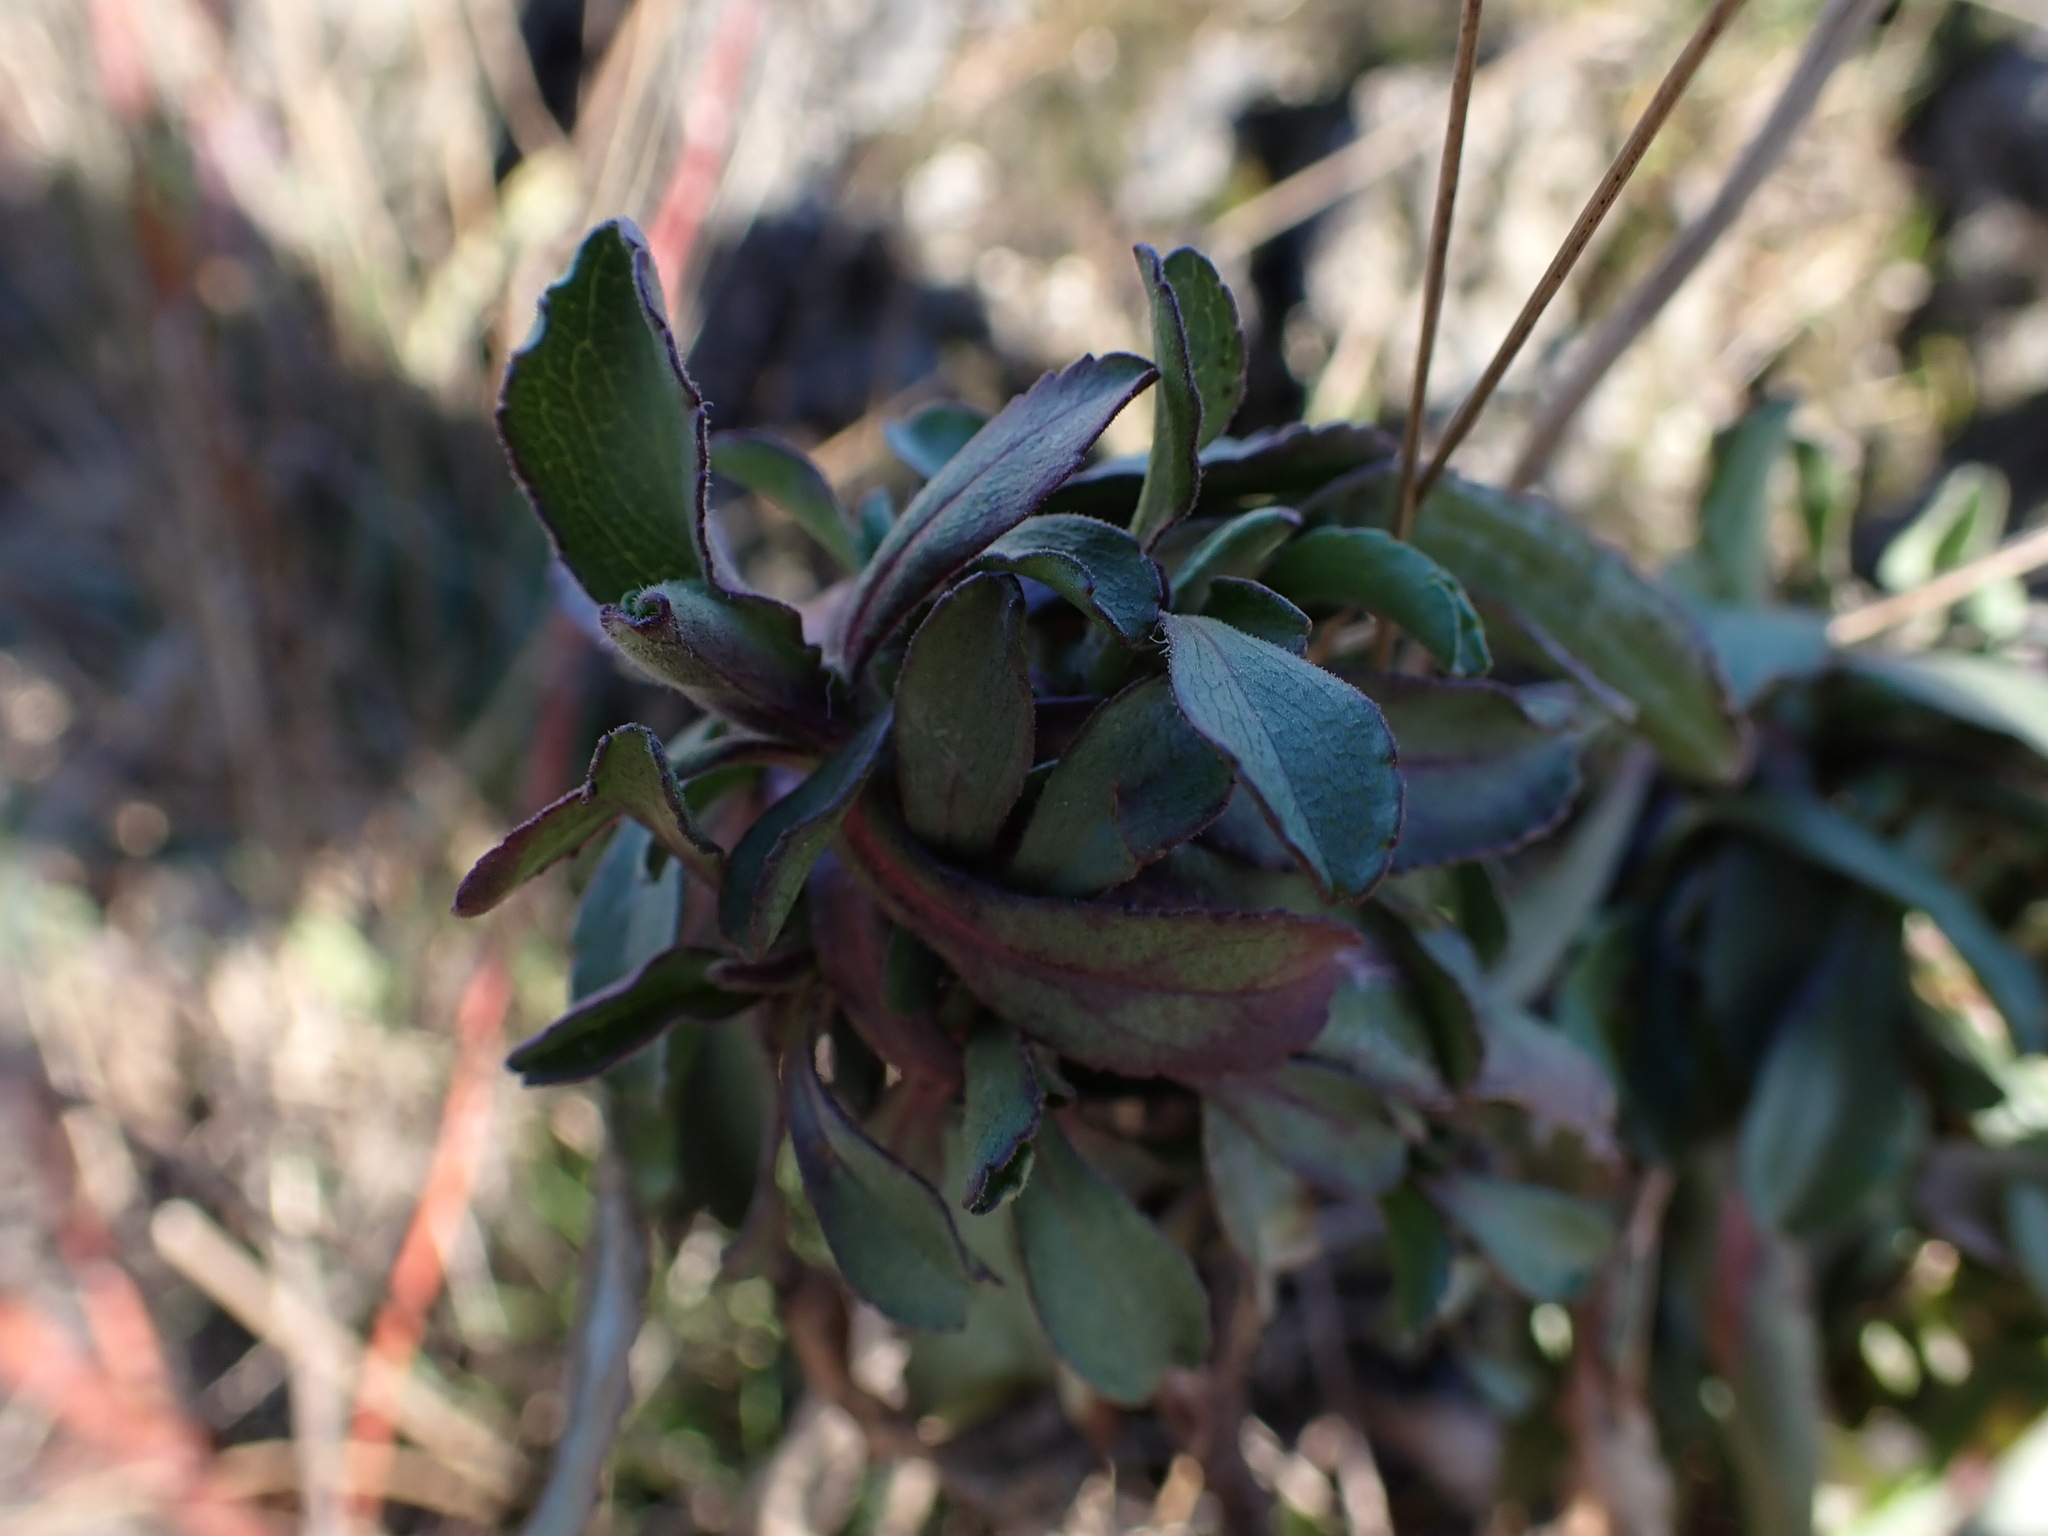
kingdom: Plantae
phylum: Tracheophyta
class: Magnoliopsida
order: Asterales
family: Asteraceae
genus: Grindelia
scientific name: Grindelia hirsutula
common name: Hairy gumweed
